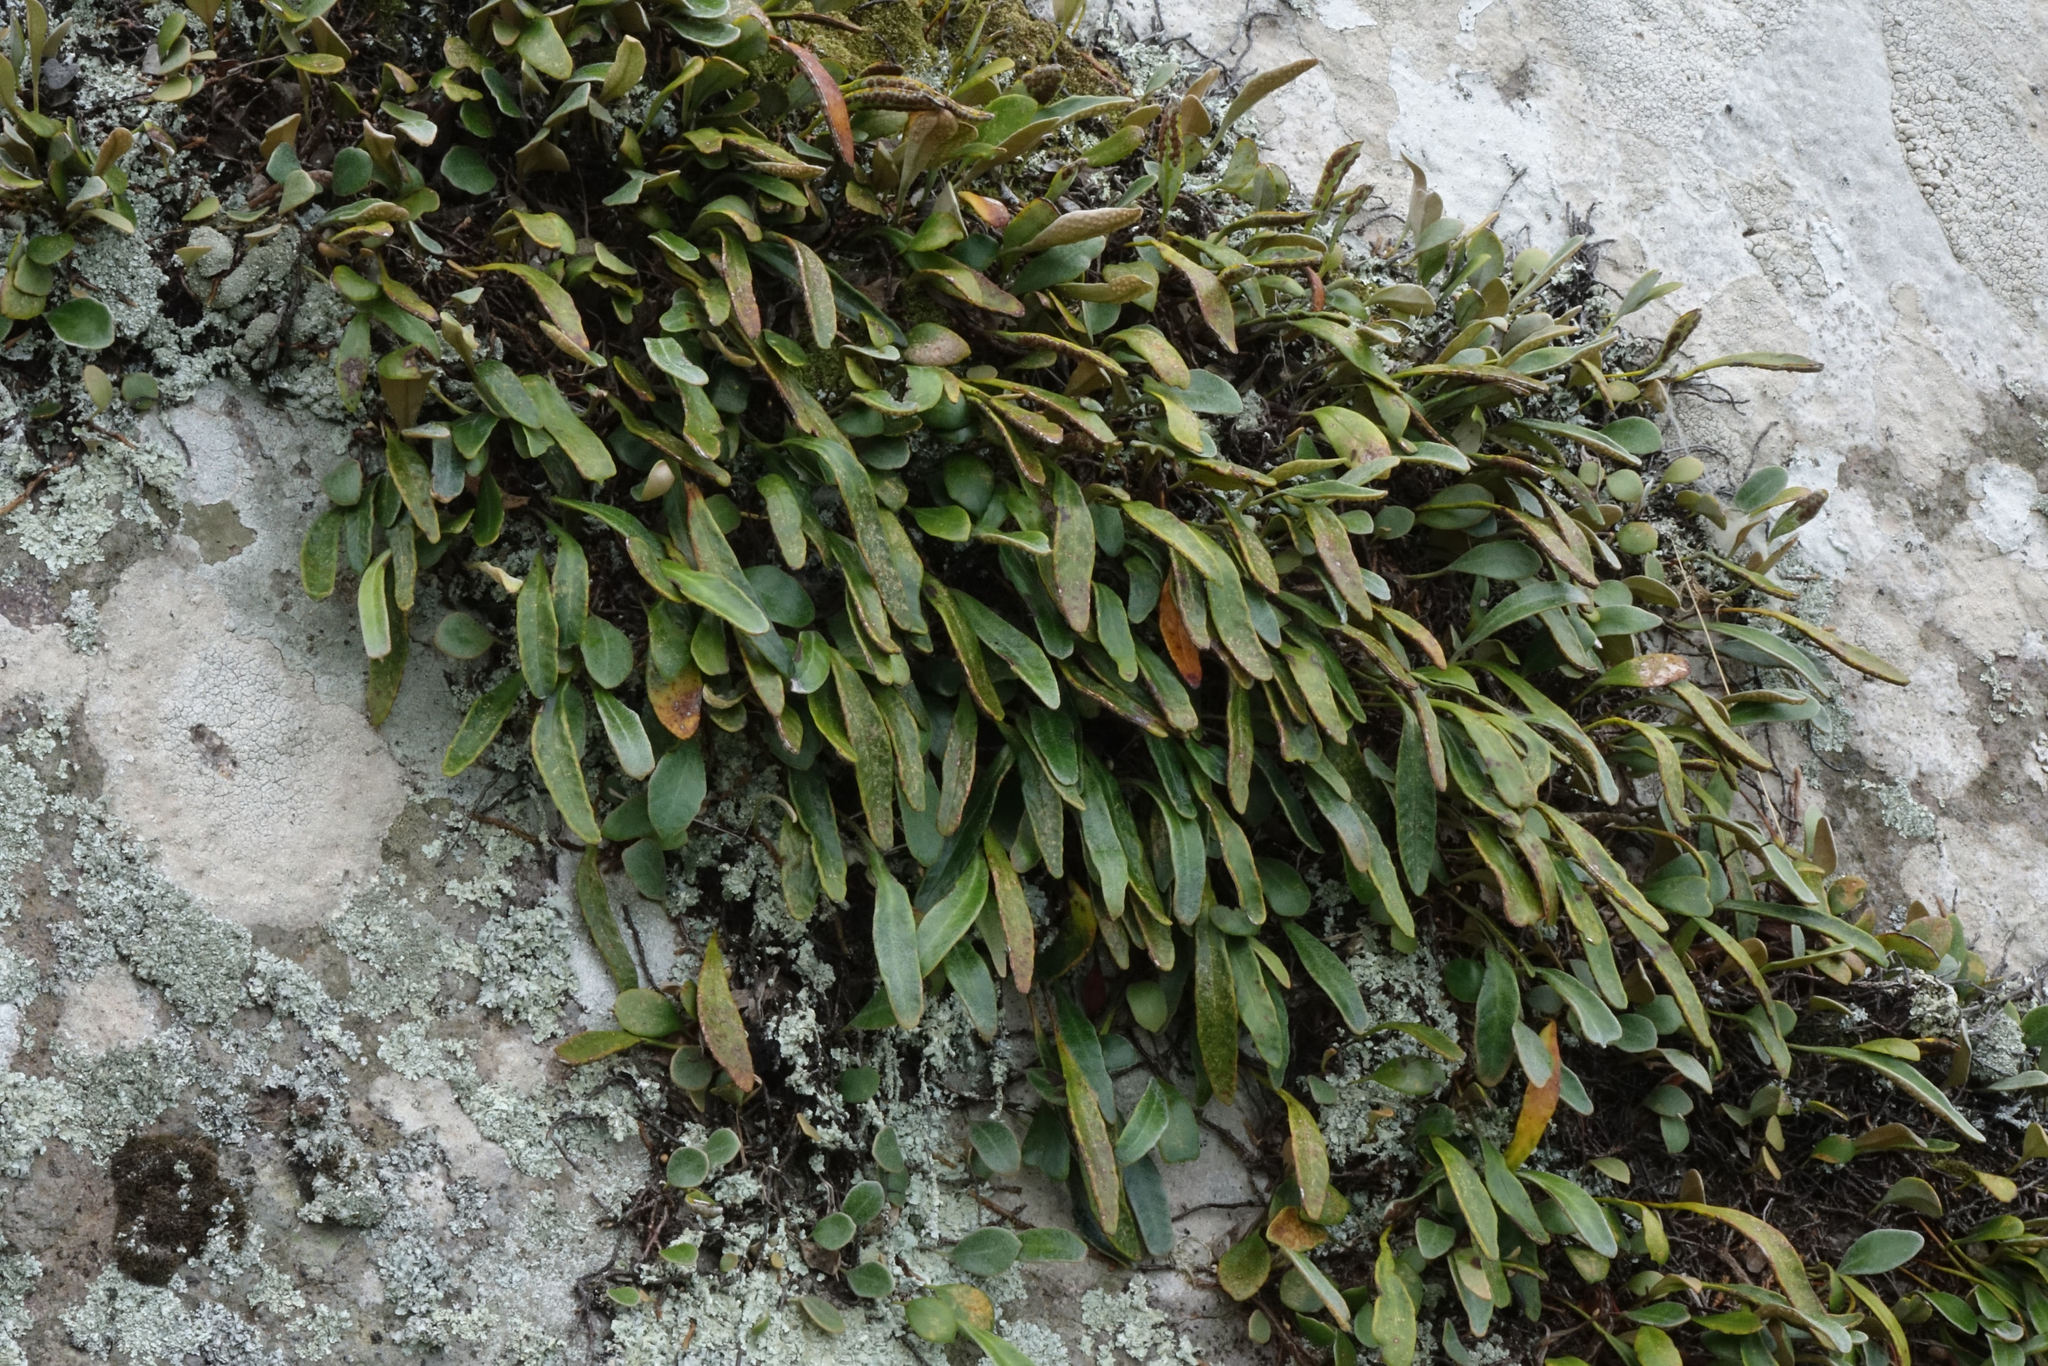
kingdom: Plantae
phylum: Tracheophyta
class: Polypodiopsida
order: Polypodiales
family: Polypodiaceae
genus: Pyrrosia
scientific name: Pyrrosia eleagnifolia
